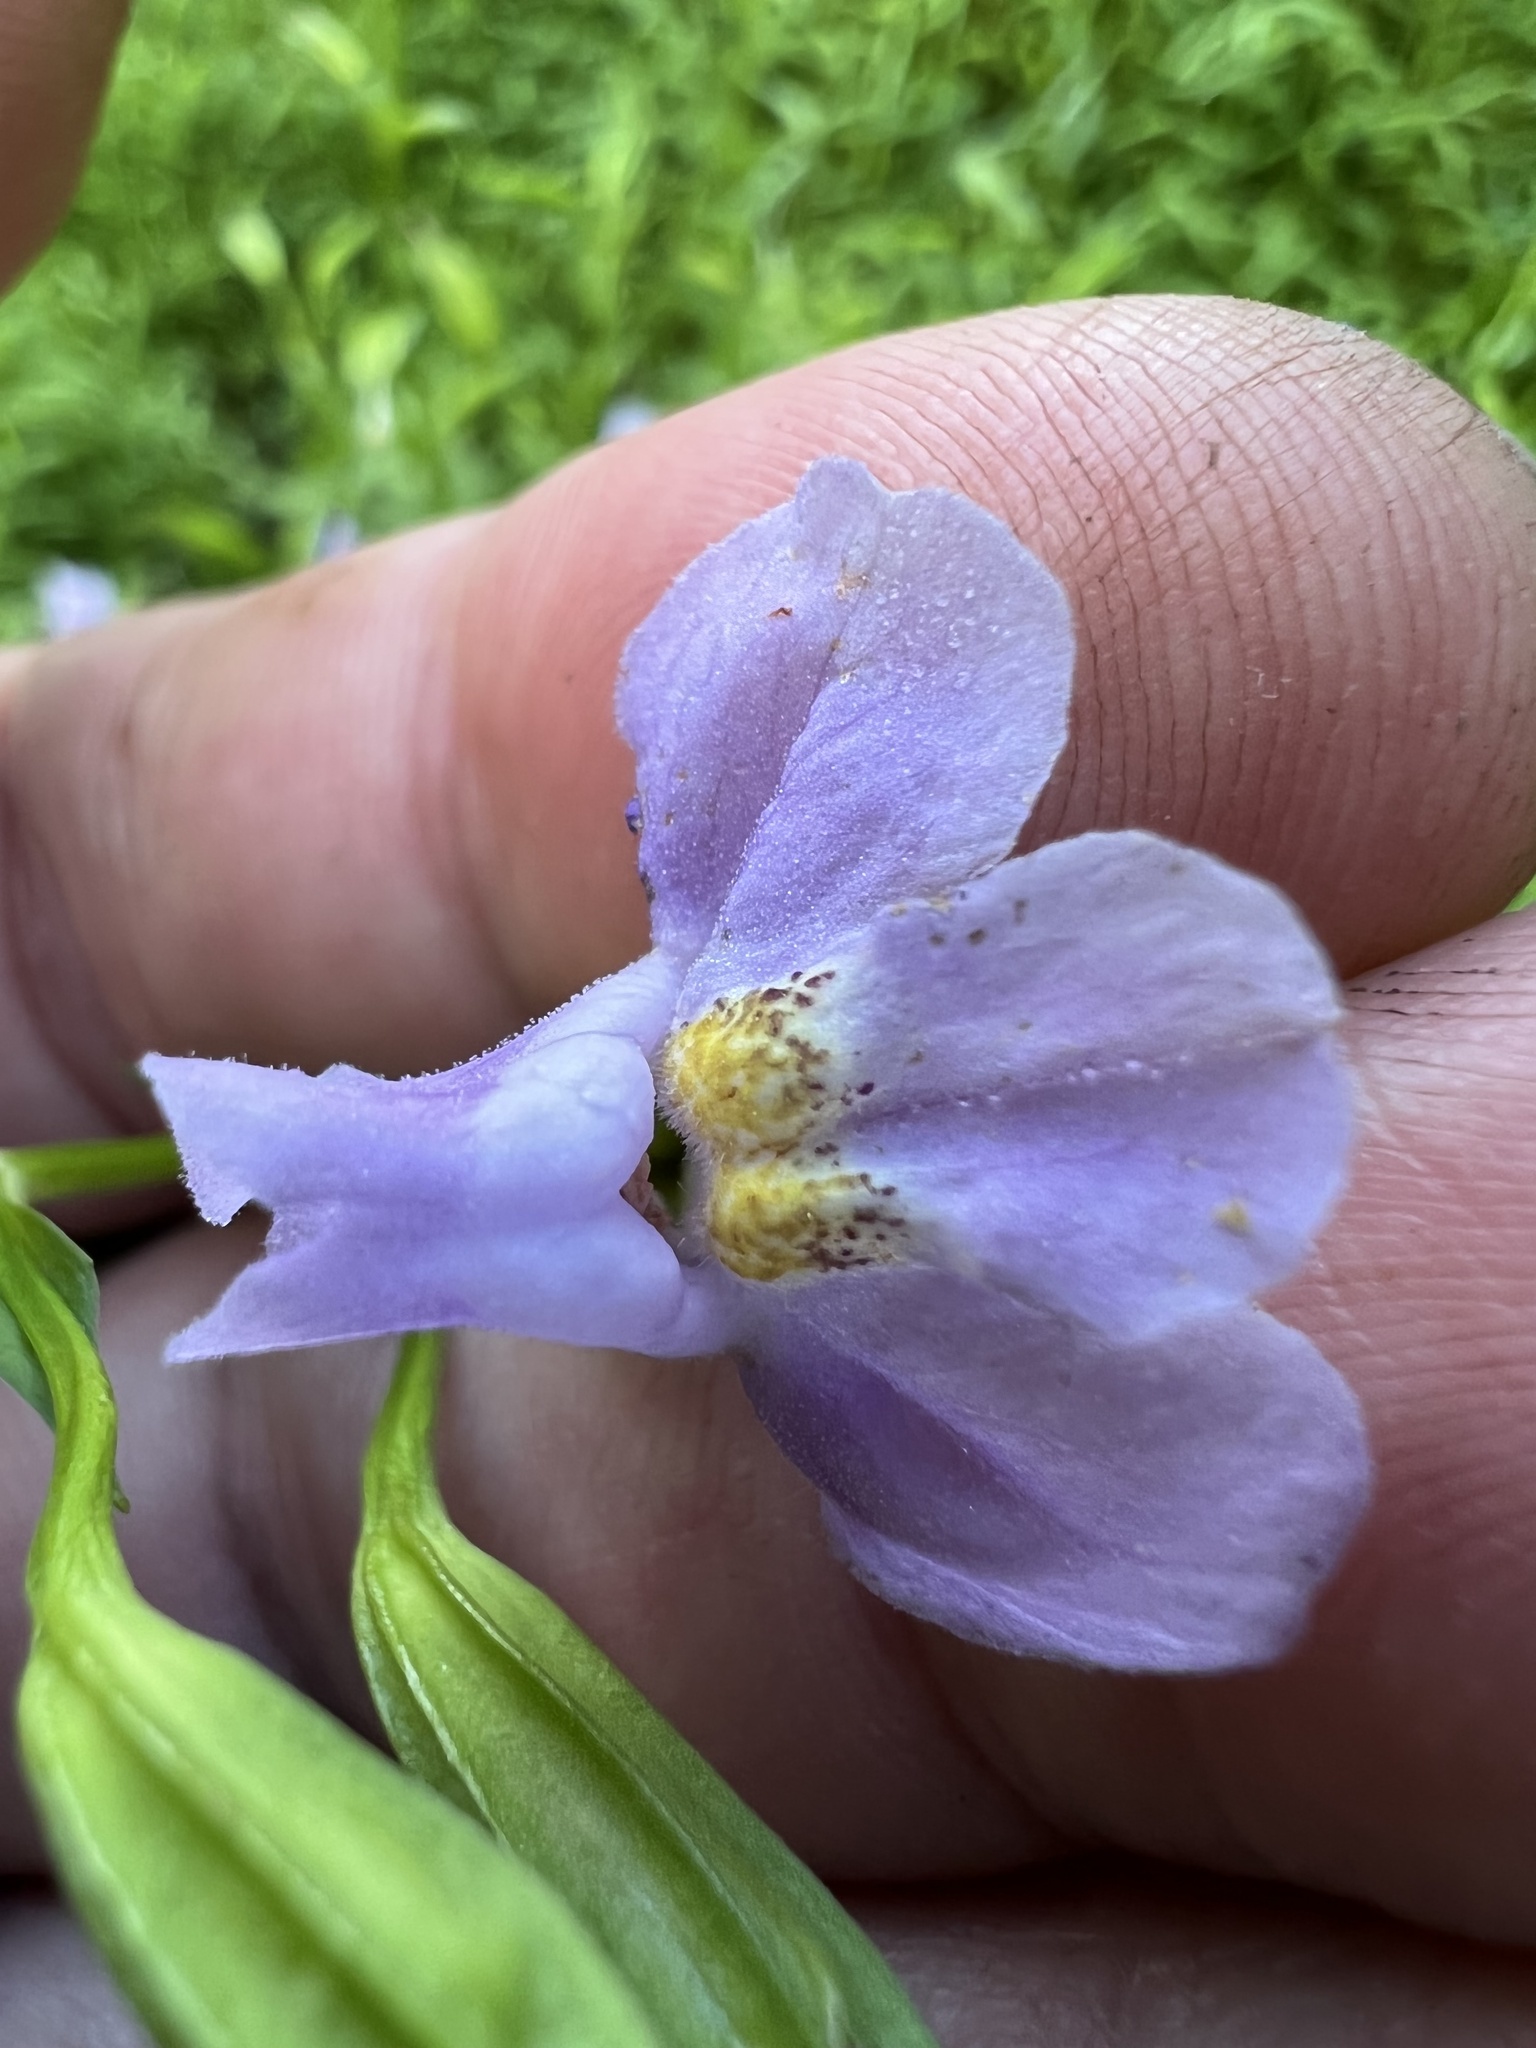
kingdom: Plantae
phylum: Tracheophyta
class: Magnoliopsida
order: Lamiales
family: Phrymaceae
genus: Mimulus
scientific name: Mimulus ringens
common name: Allegheny monkeyflower
